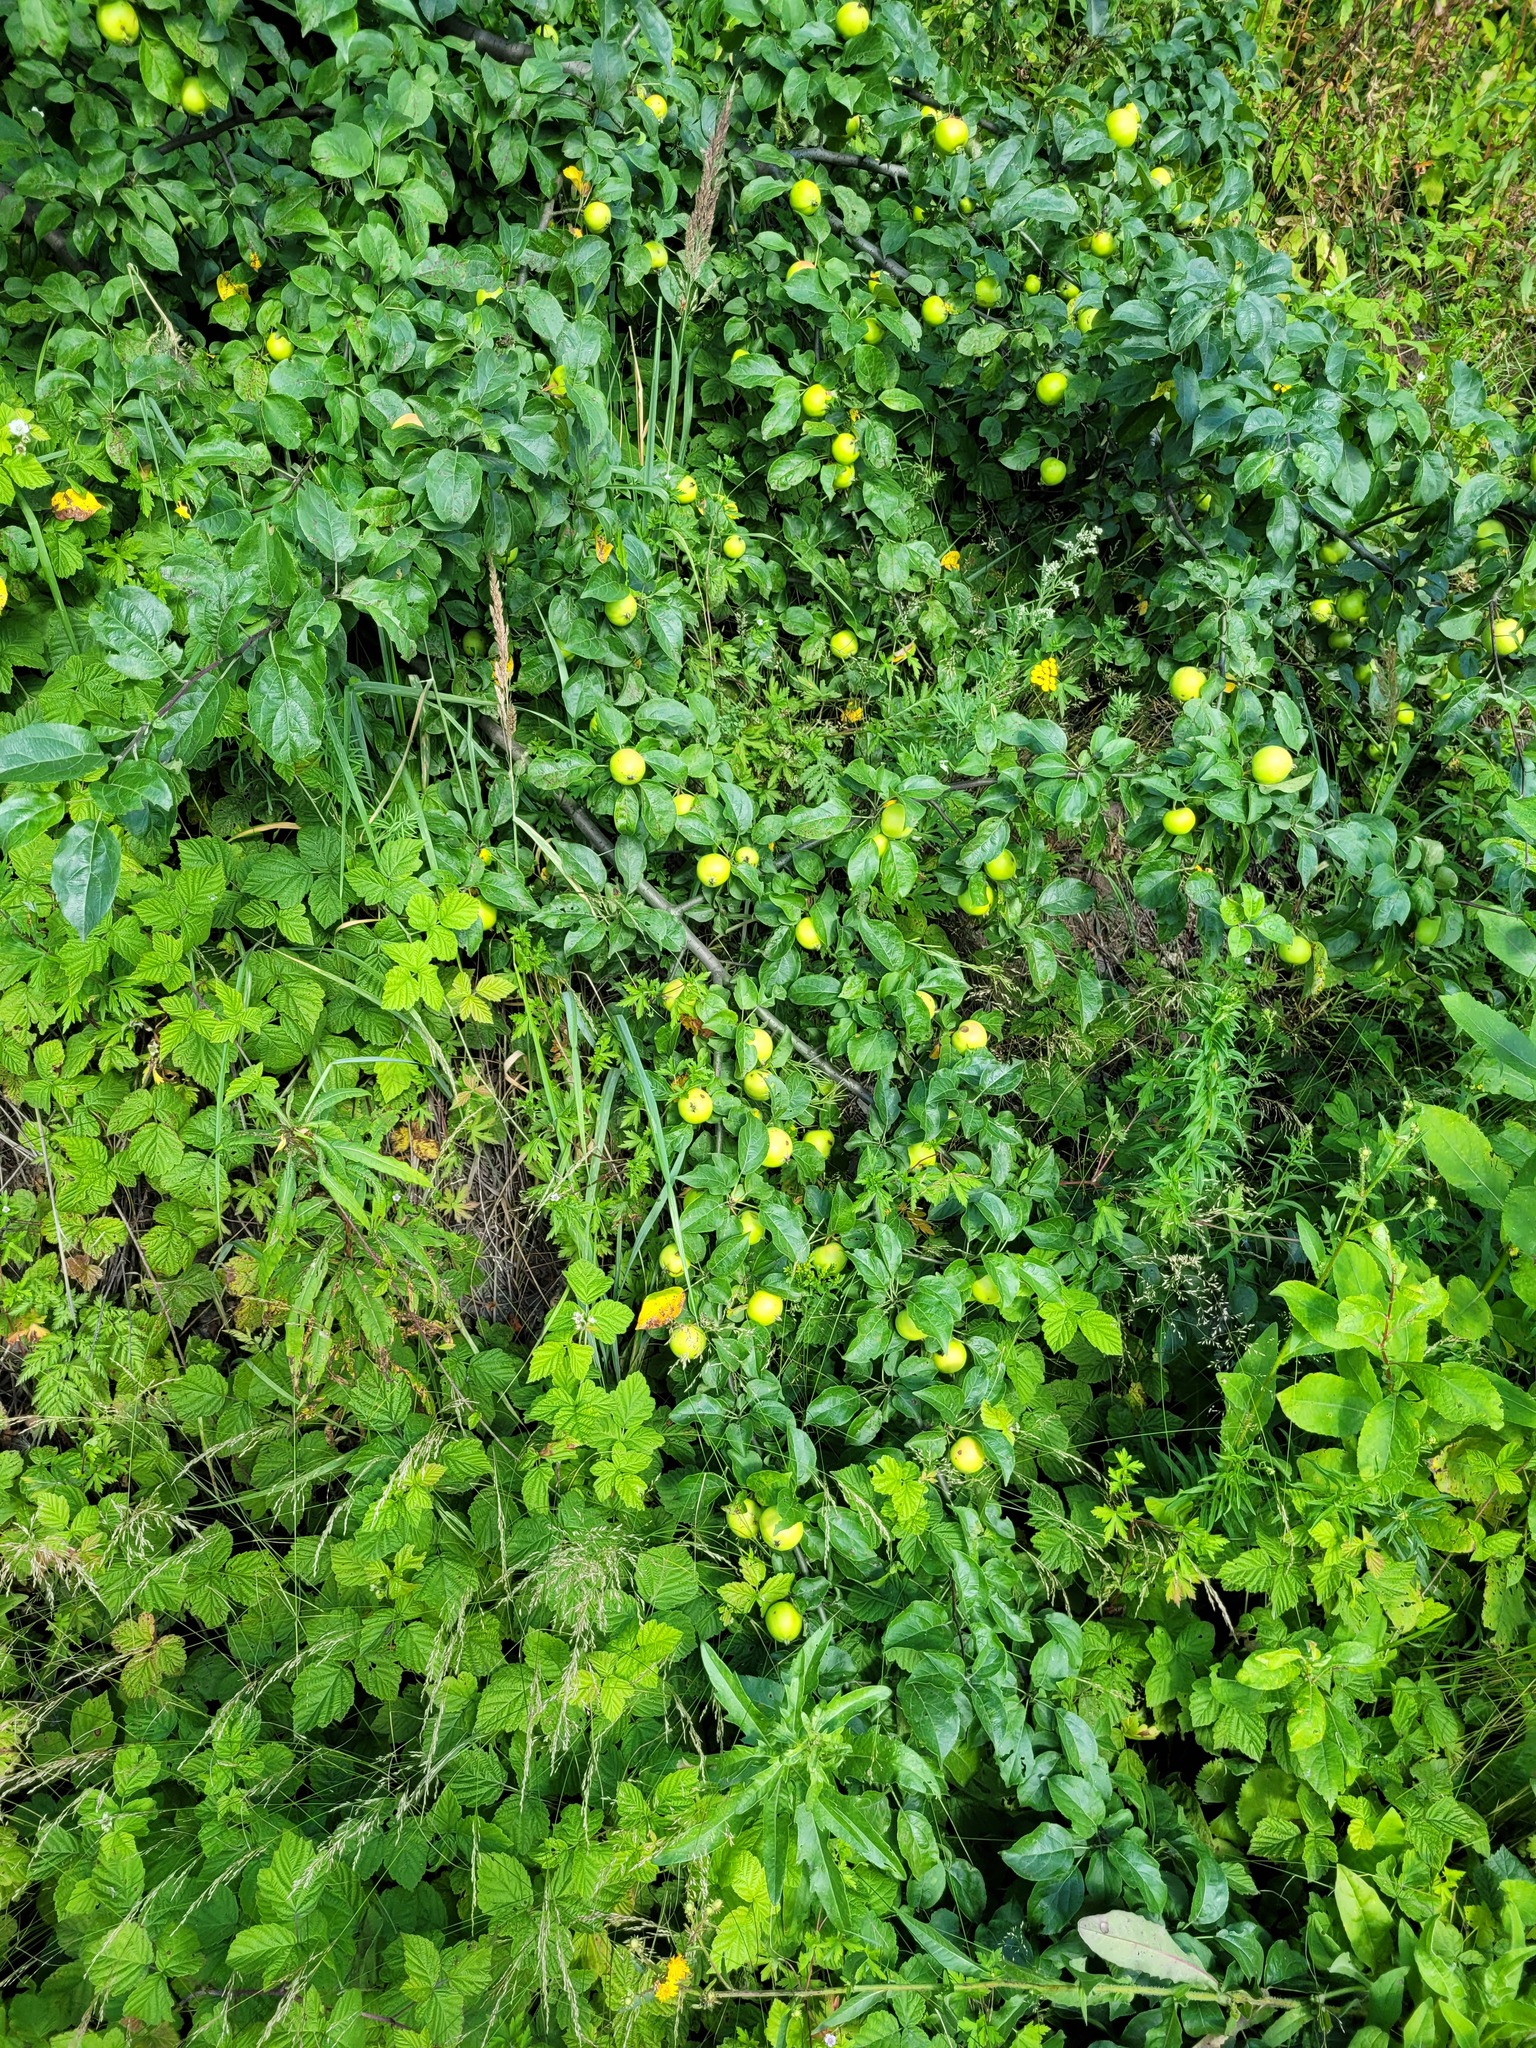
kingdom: Plantae
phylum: Tracheophyta
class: Magnoliopsida
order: Rosales
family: Rosaceae
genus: Malus
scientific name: Malus domestica
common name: Apple
